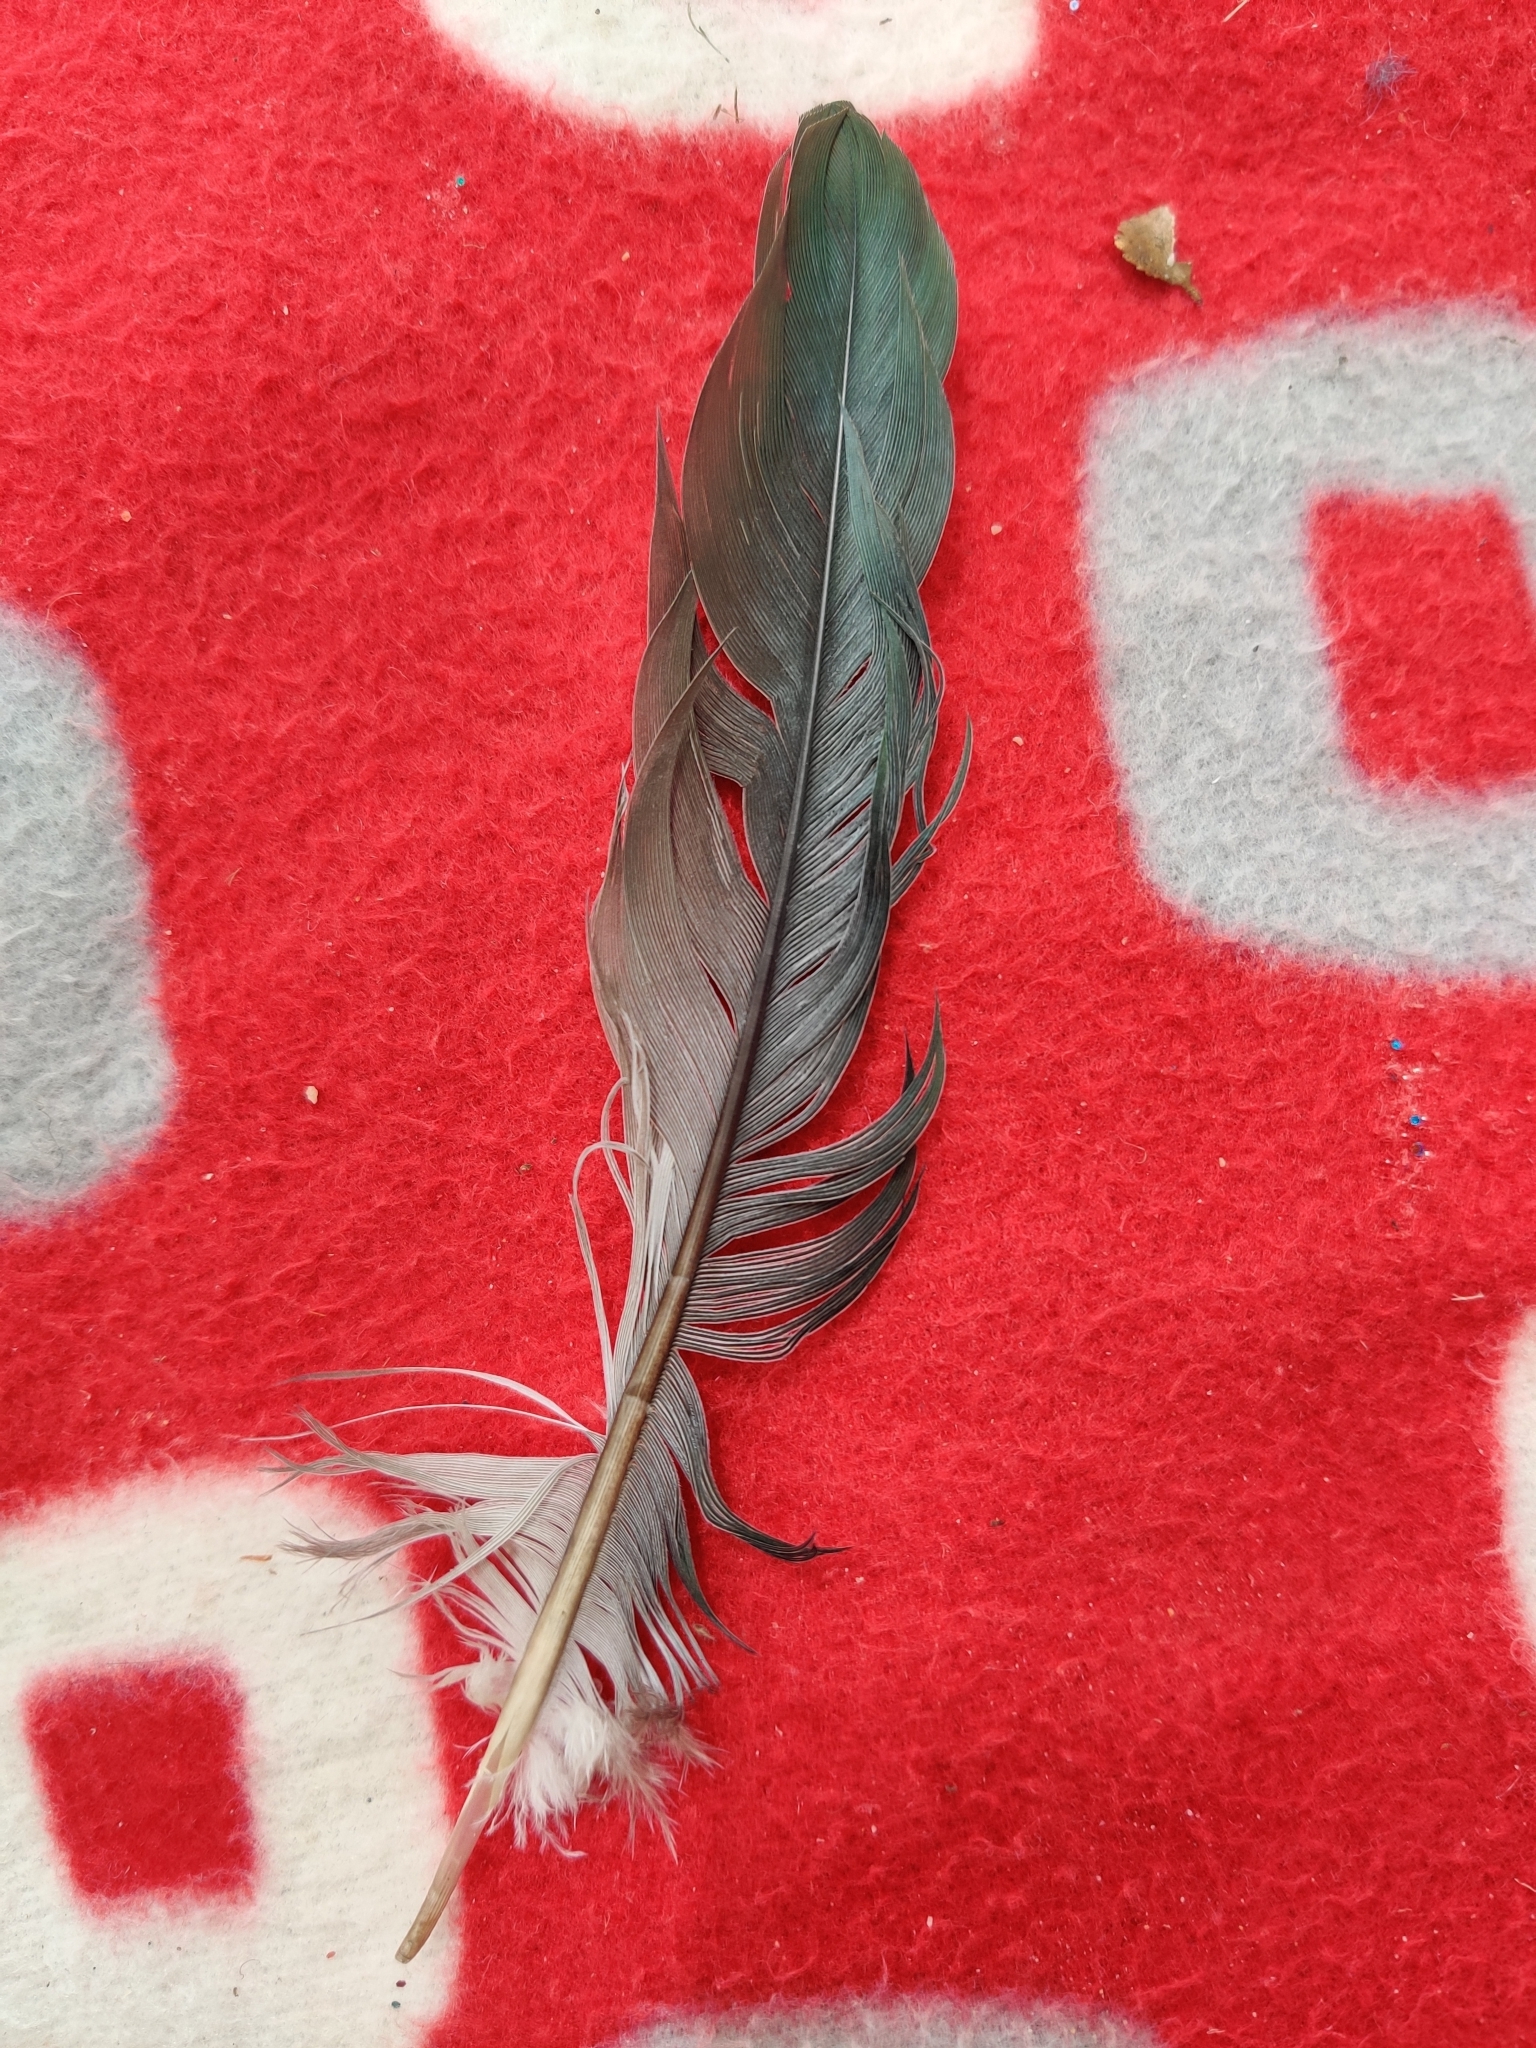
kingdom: Animalia
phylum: Chordata
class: Aves
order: Columbiformes
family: Columbidae
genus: Hemiphaga
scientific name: Hemiphaga novaeseelandiae
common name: New zealand pigeon
